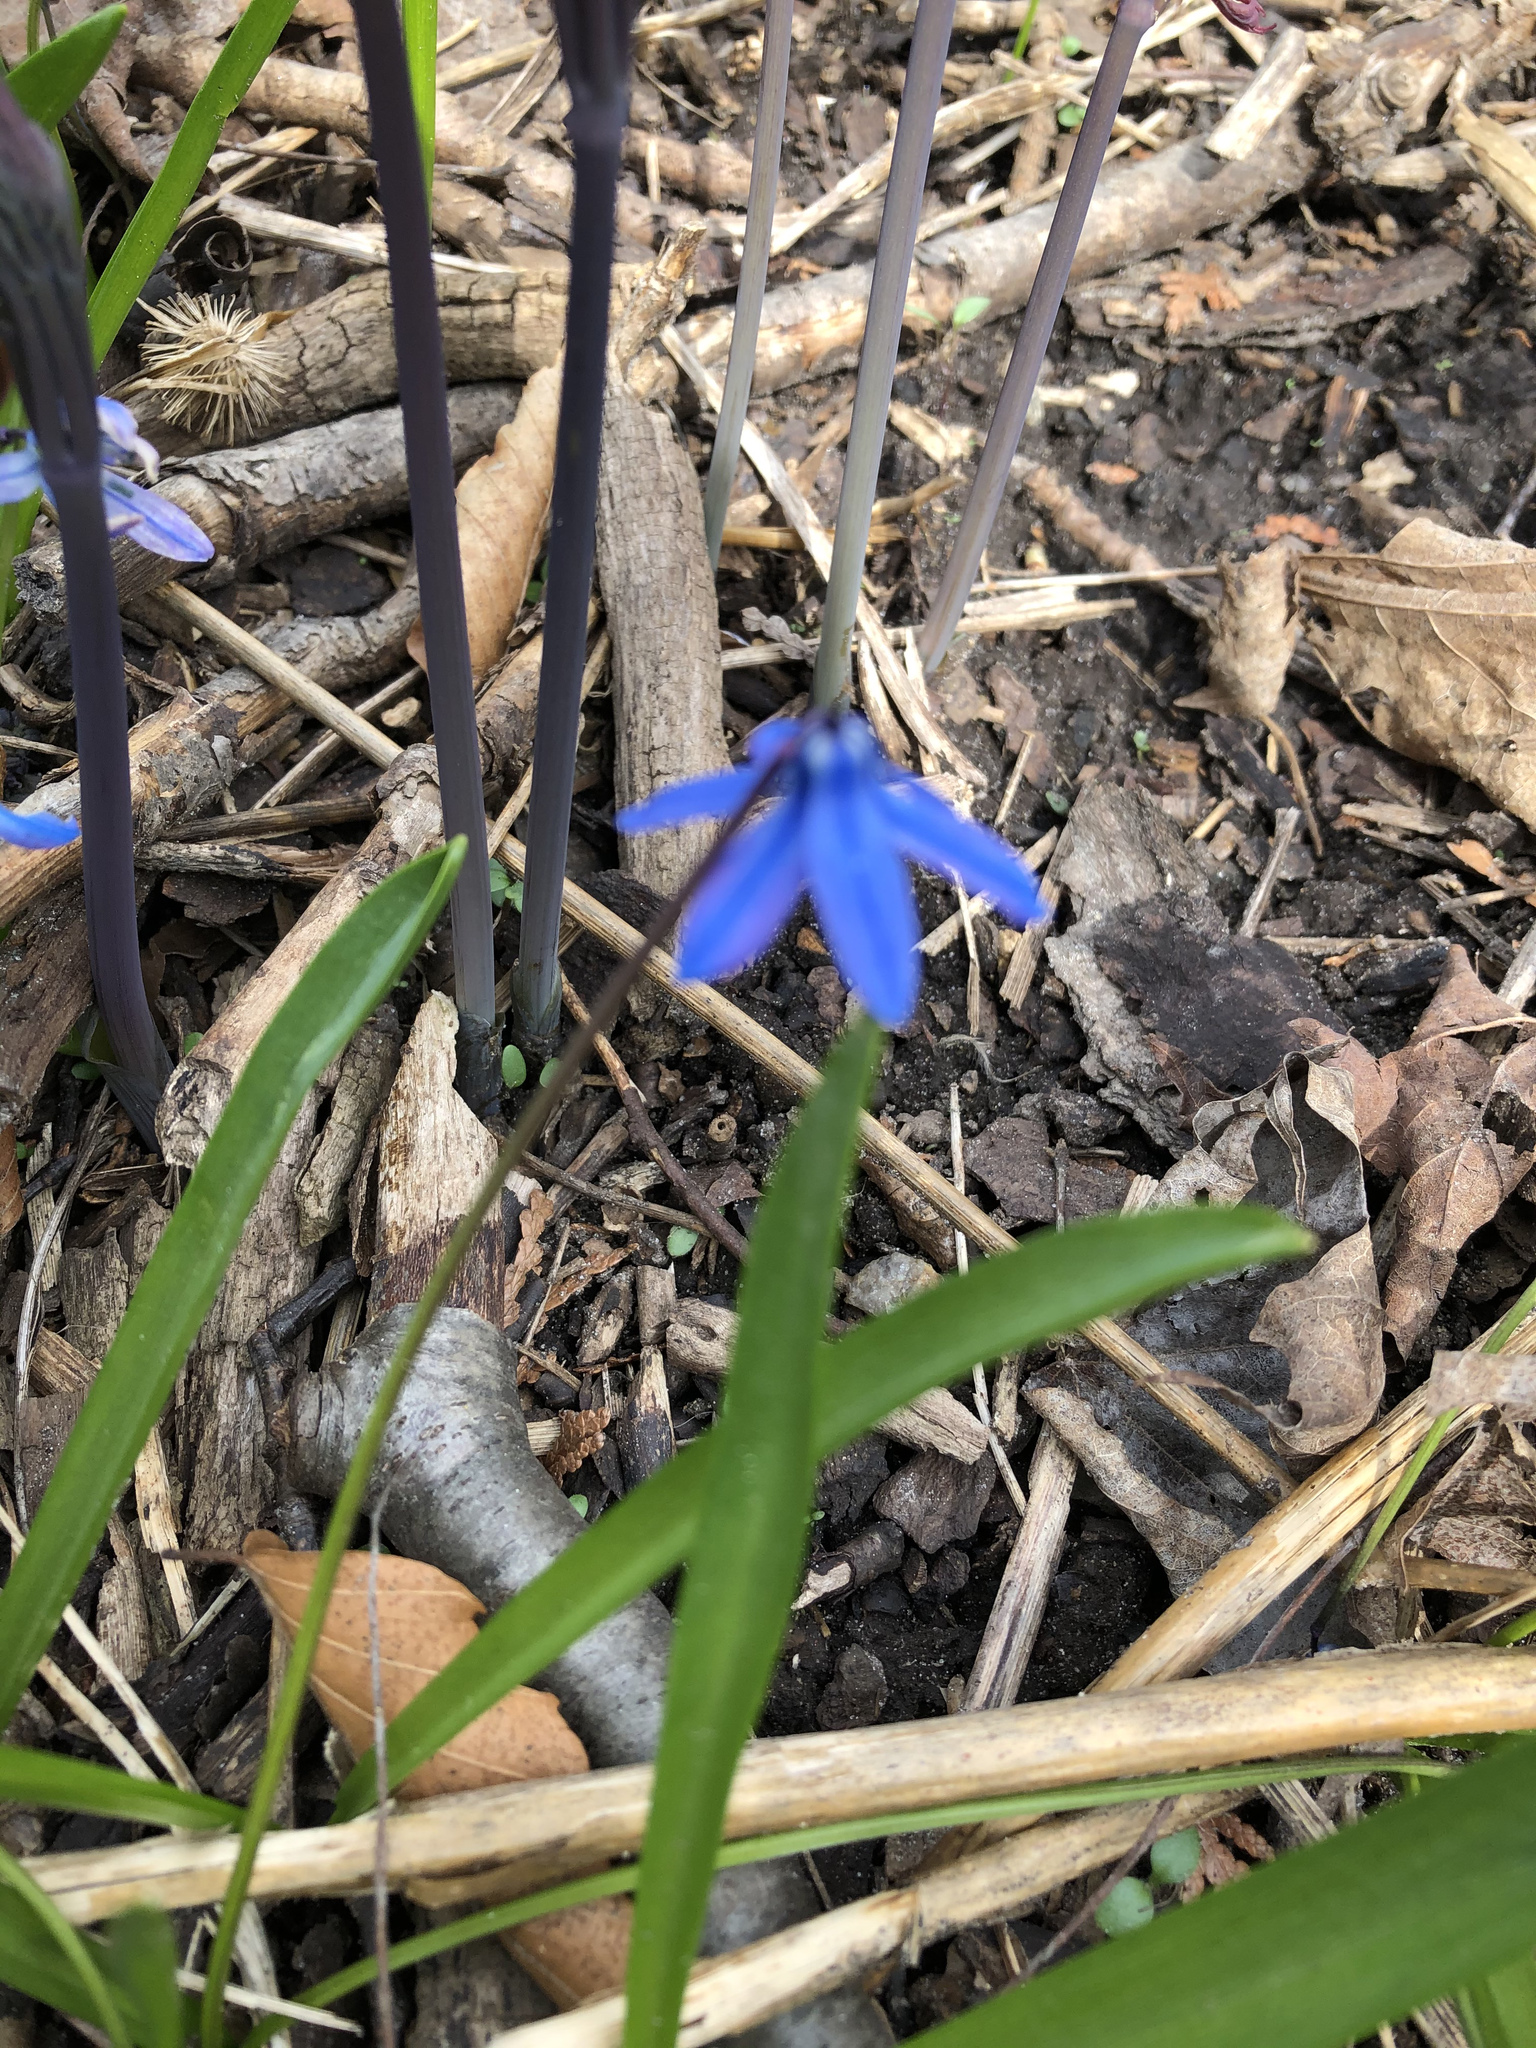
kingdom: Plantae
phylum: Tracheophyta
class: Liliopsida
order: Asparagales
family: Asparagaceae
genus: Scilla
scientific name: Scilla siberica
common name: Siberian squill
